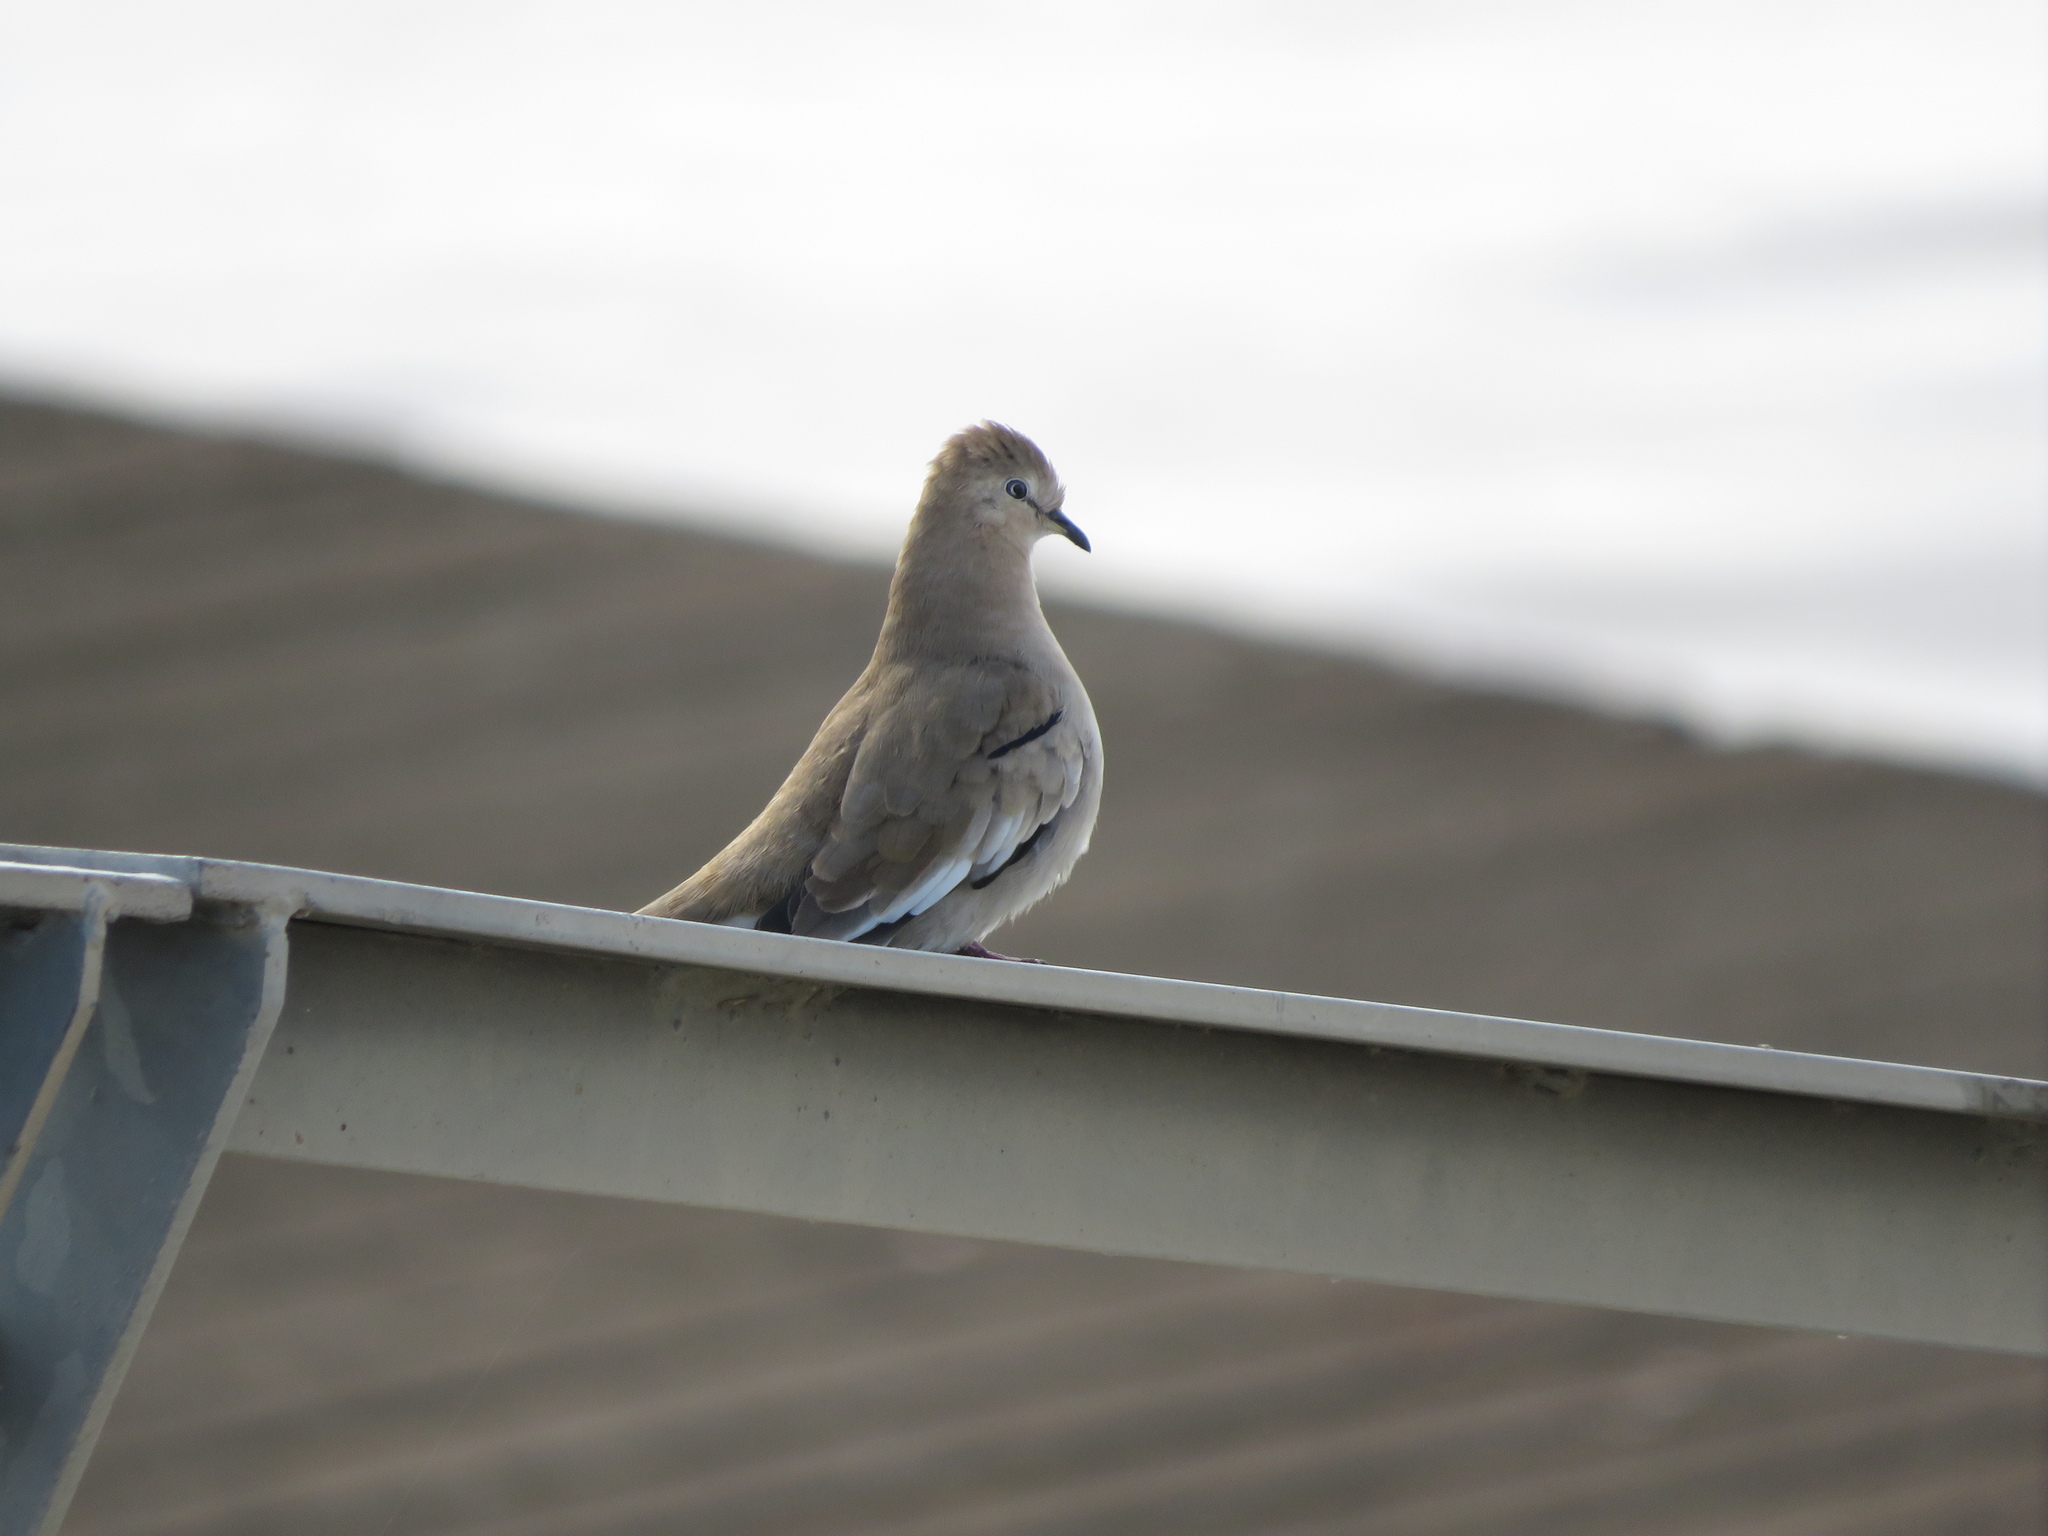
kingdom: Animalia
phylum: Chordata
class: Aves
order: Columbiformes
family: Columbidae
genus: Columbina
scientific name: Columbina picui
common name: Picui ground dove
